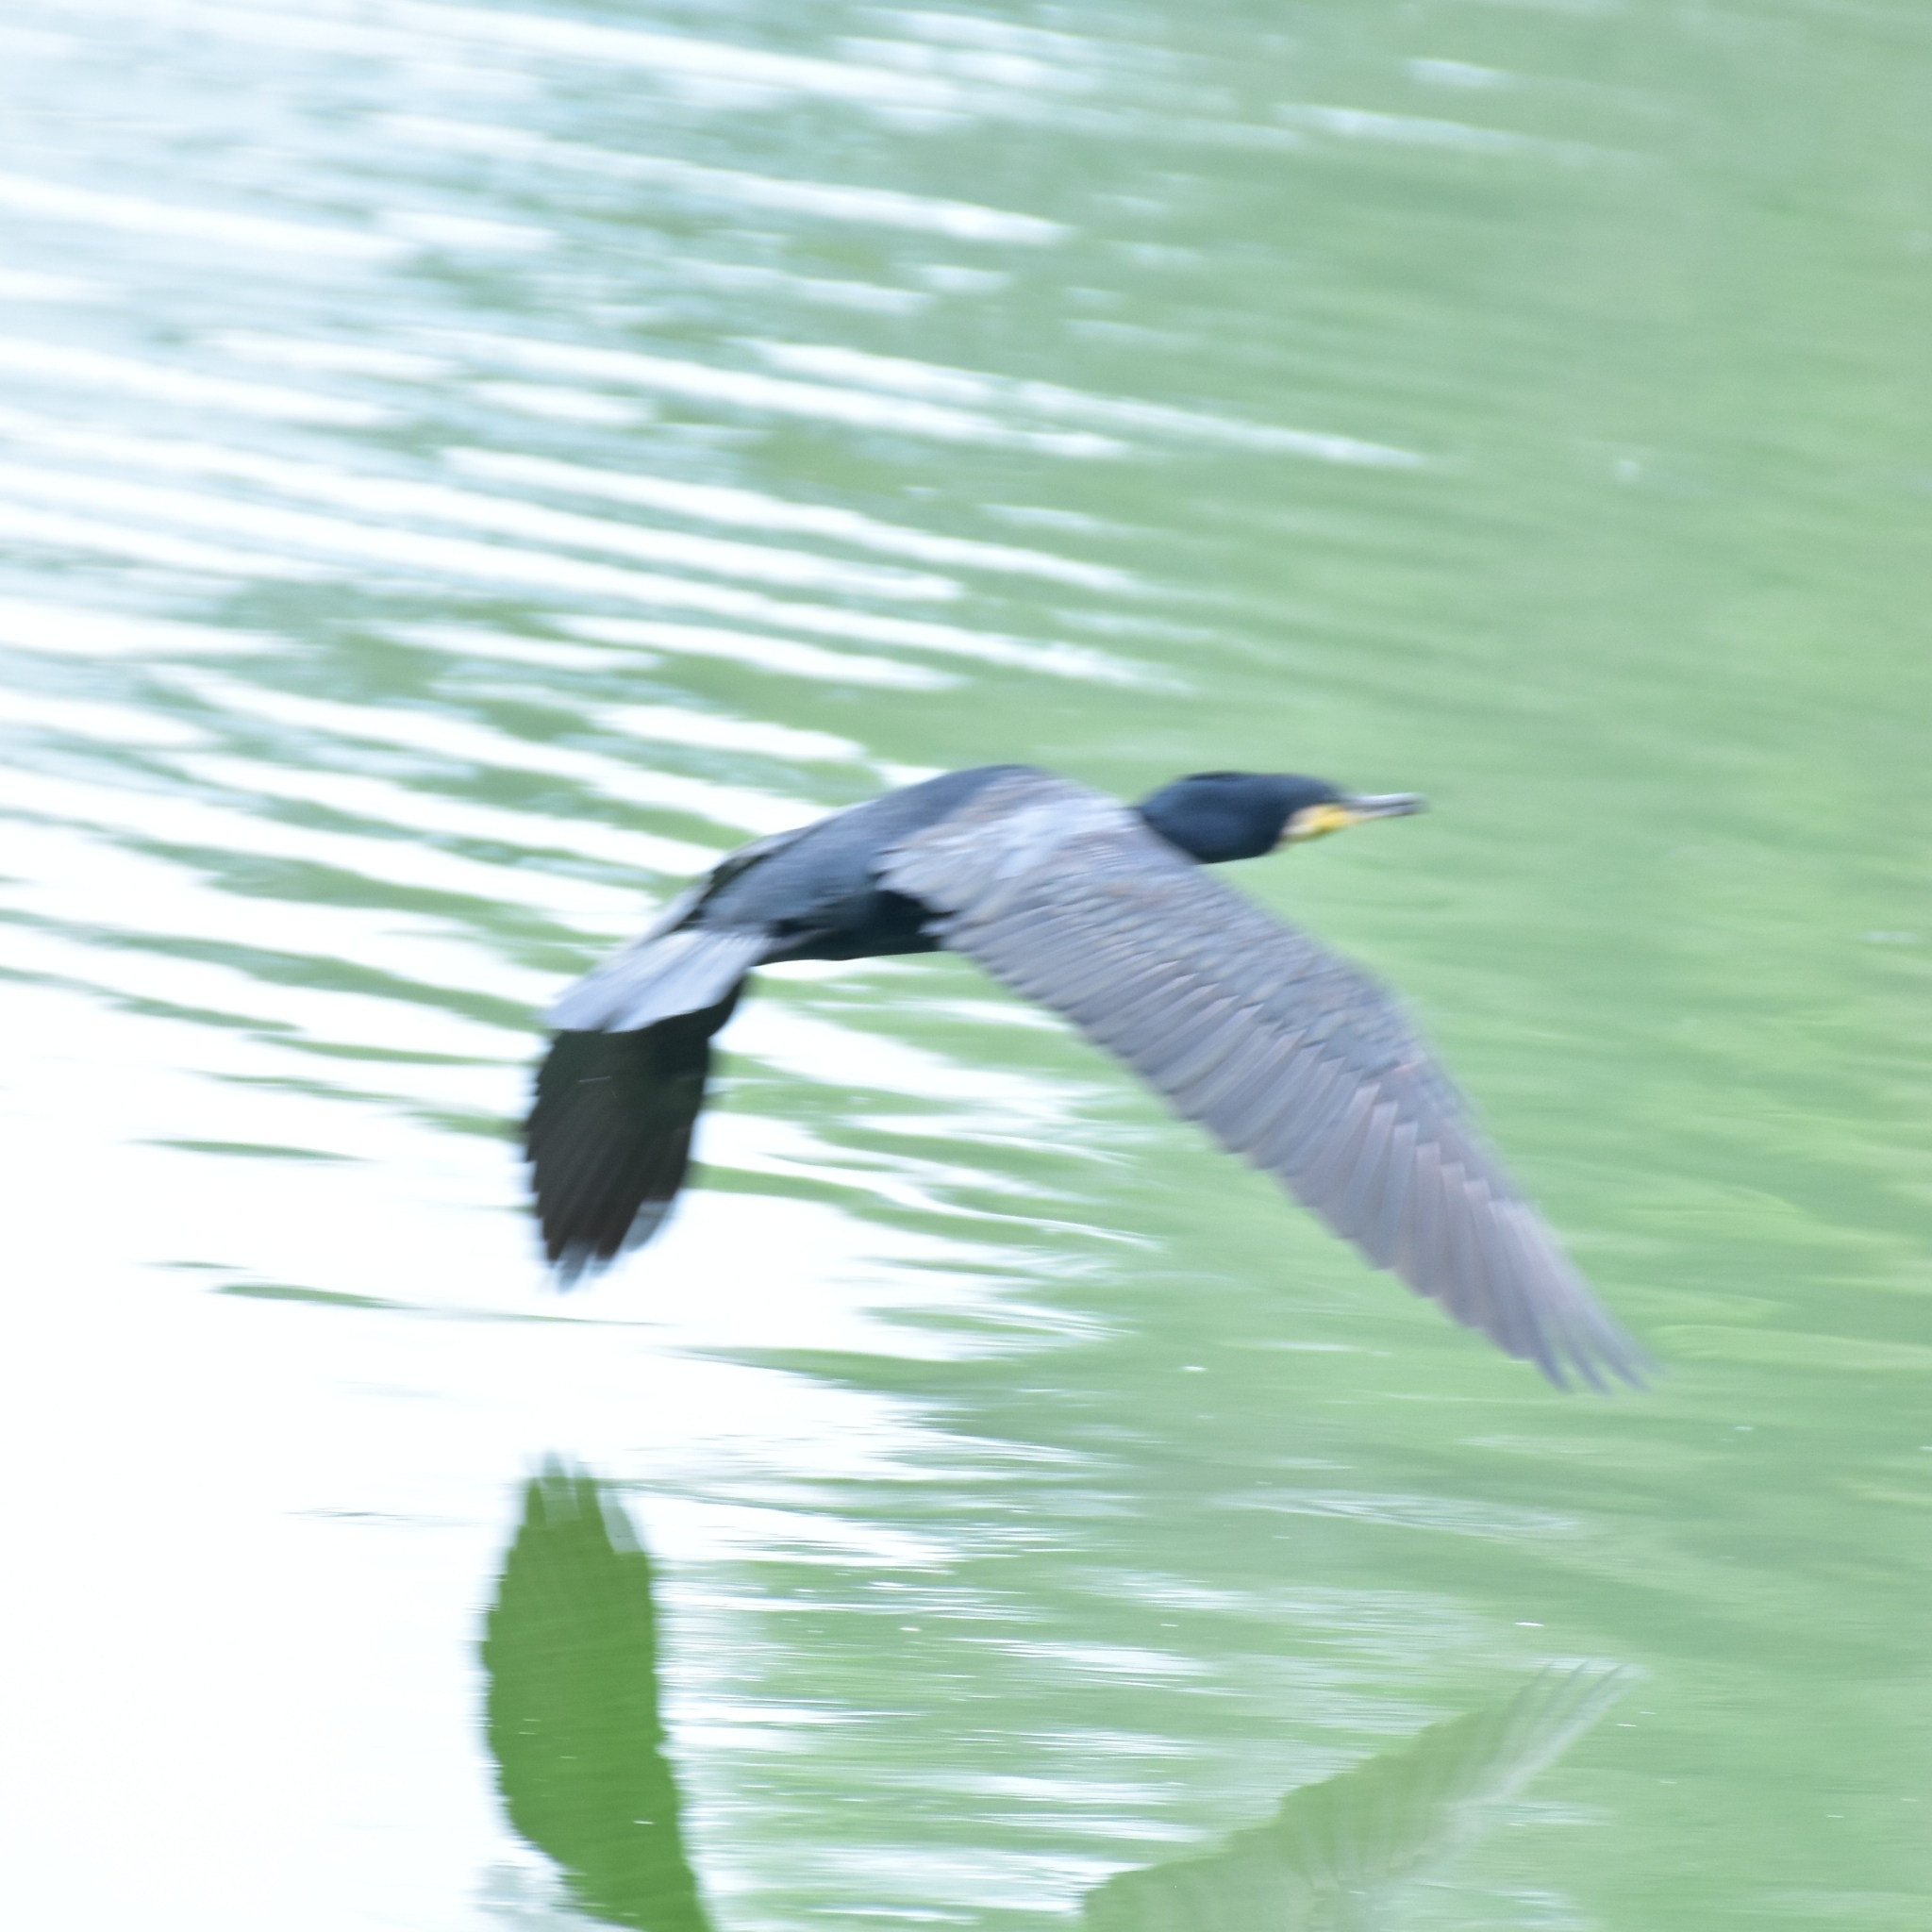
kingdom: Animalia
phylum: Chordata
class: Aves
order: Suliformes
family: Phalacrocoracidae
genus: Phalacrocorax
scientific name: Phalacrocorax carbo
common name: Great cormorant
